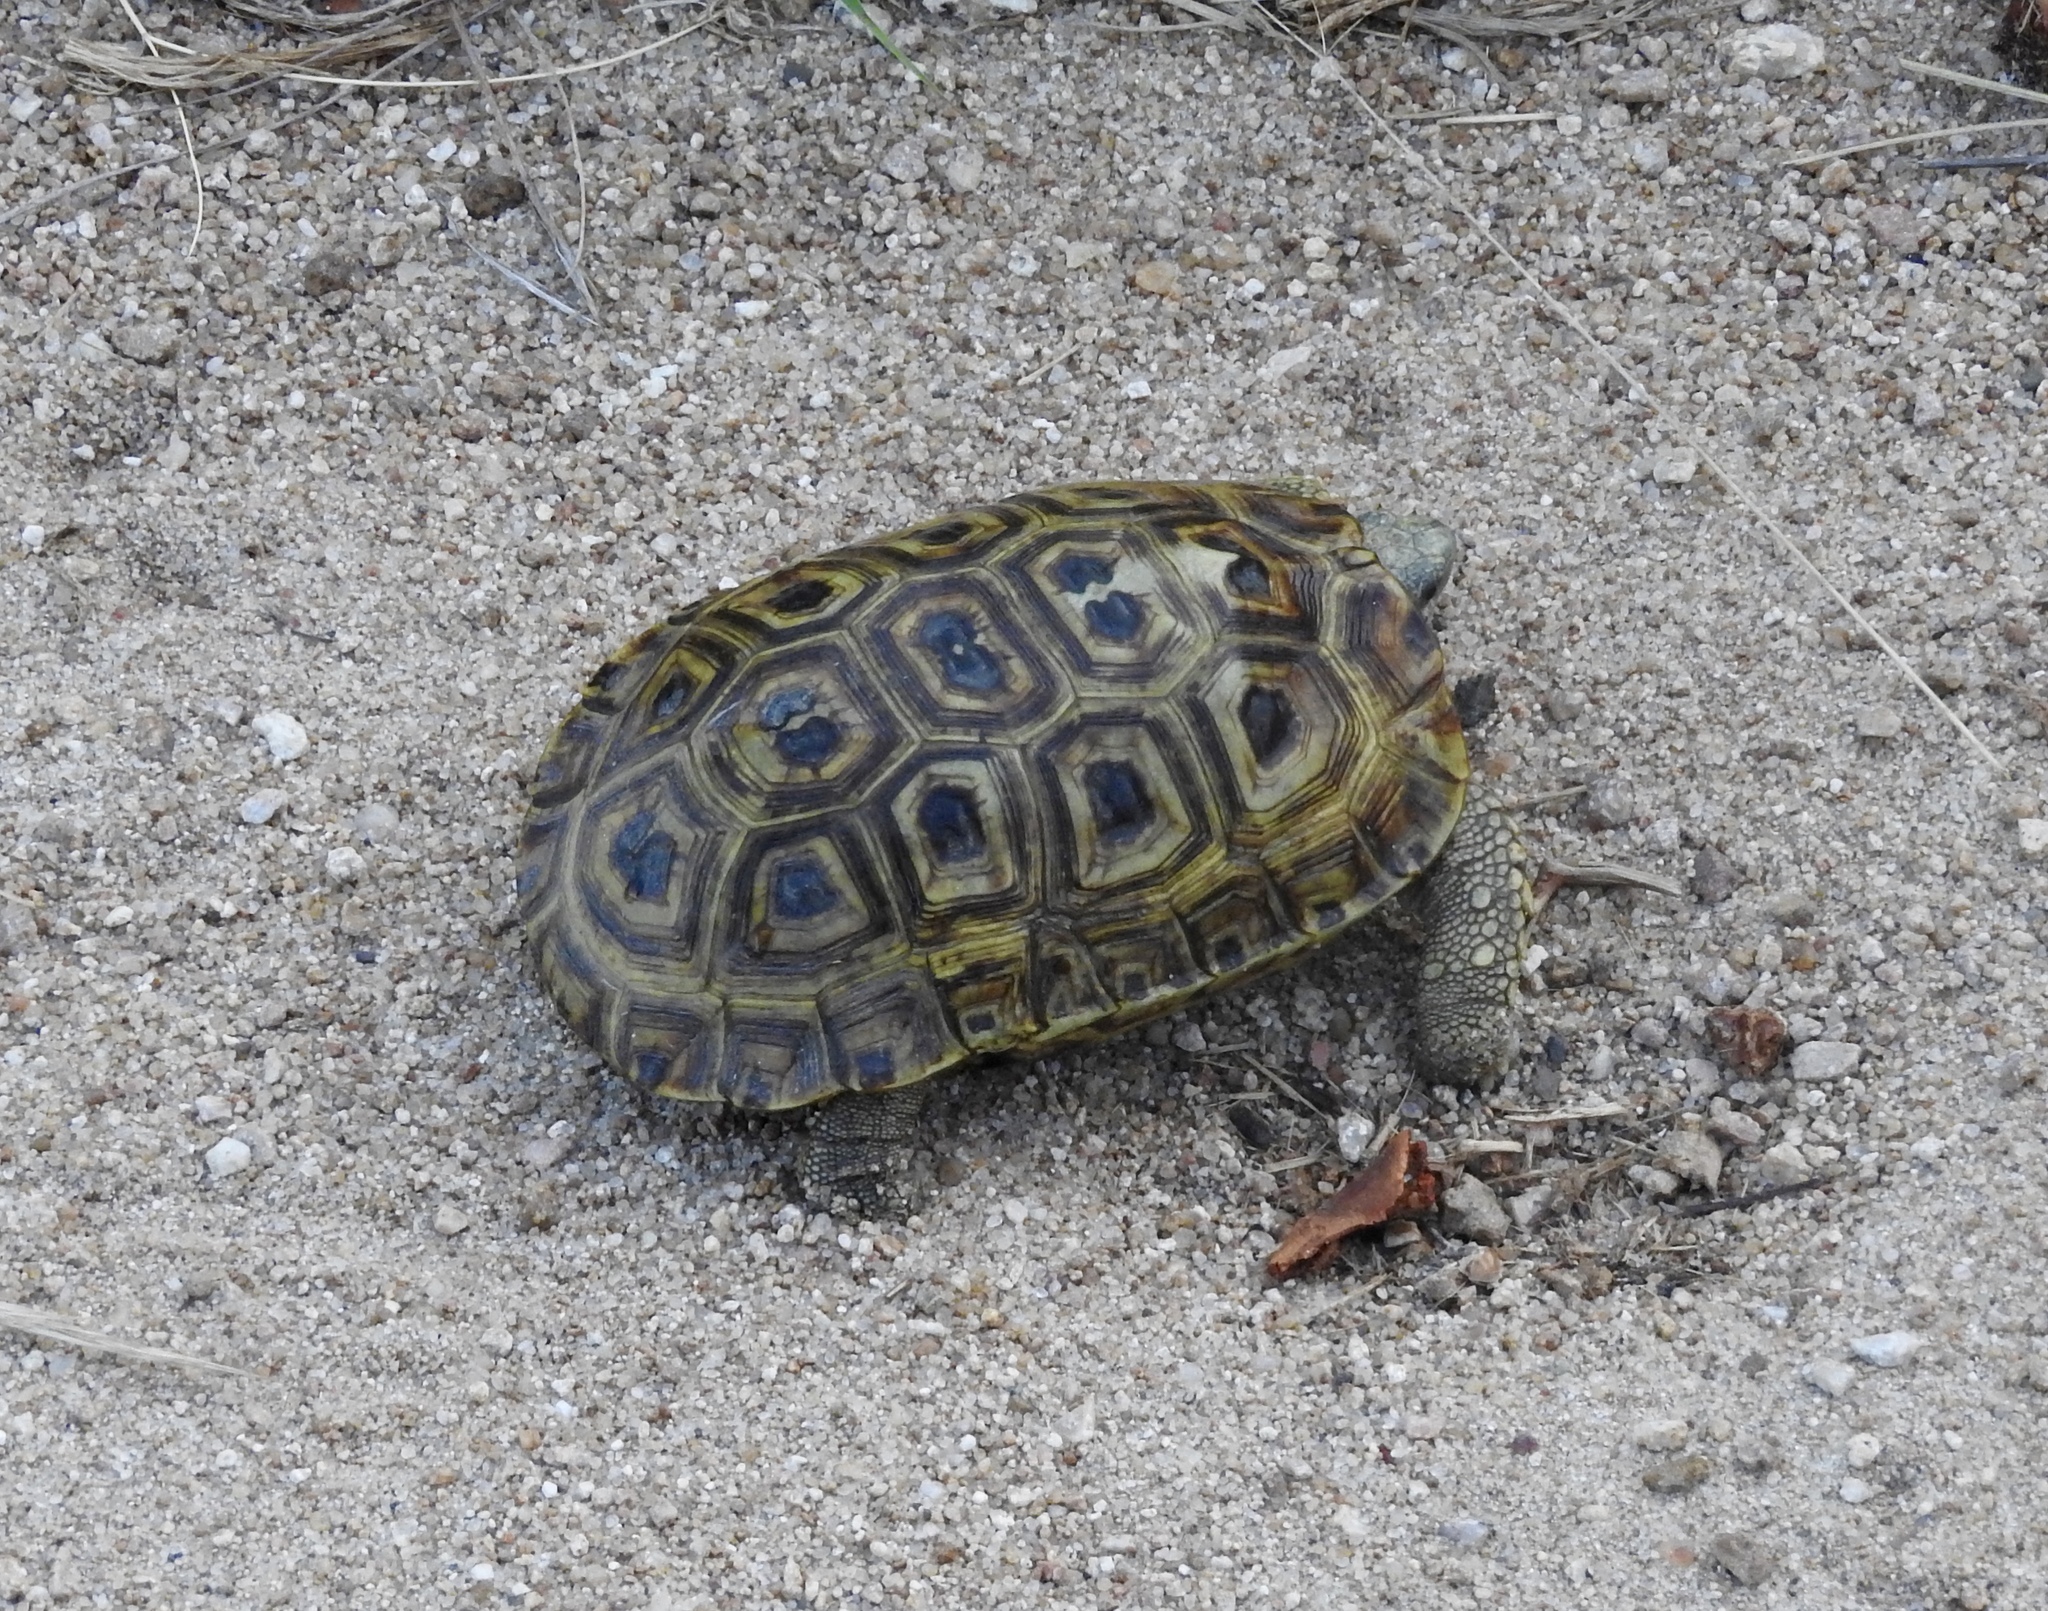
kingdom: Animalia
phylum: Chordata
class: Testudines
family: Testudinidae
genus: Kinixys
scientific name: Kinixys spekii
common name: Speke's hingeback tortoise
